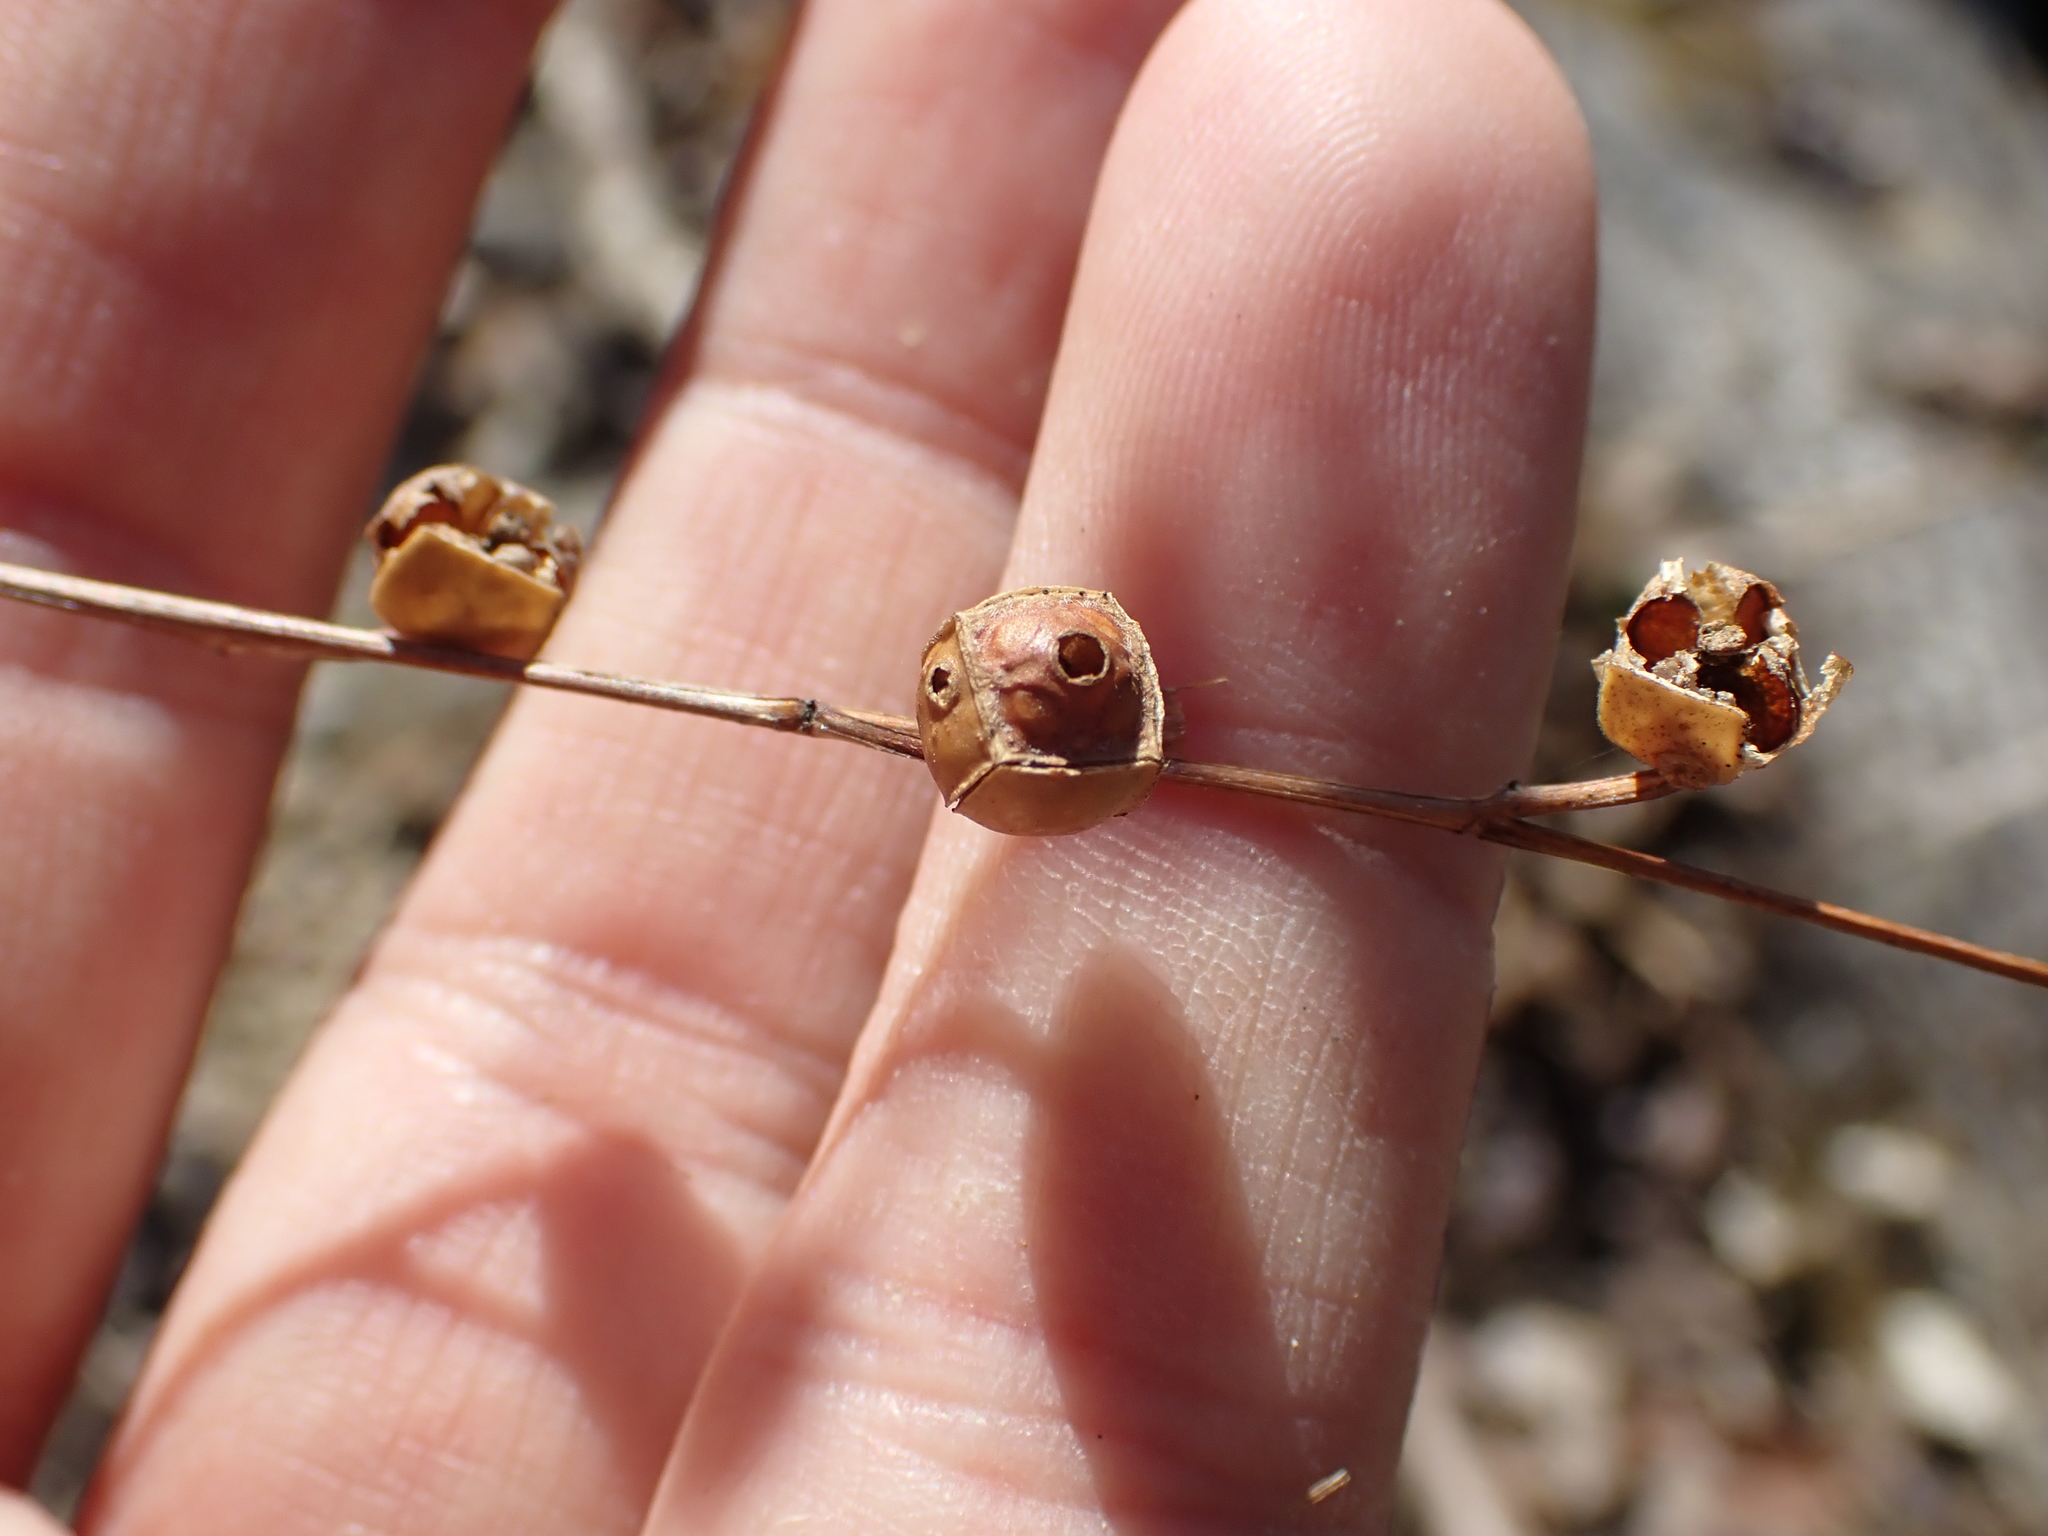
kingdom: Plantae
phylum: Tracheophyta
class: Magnoliopsida
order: Myrtales
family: Onagraceae
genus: Ludwigia
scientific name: Ludwigia alternifolia
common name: Rattlebox
